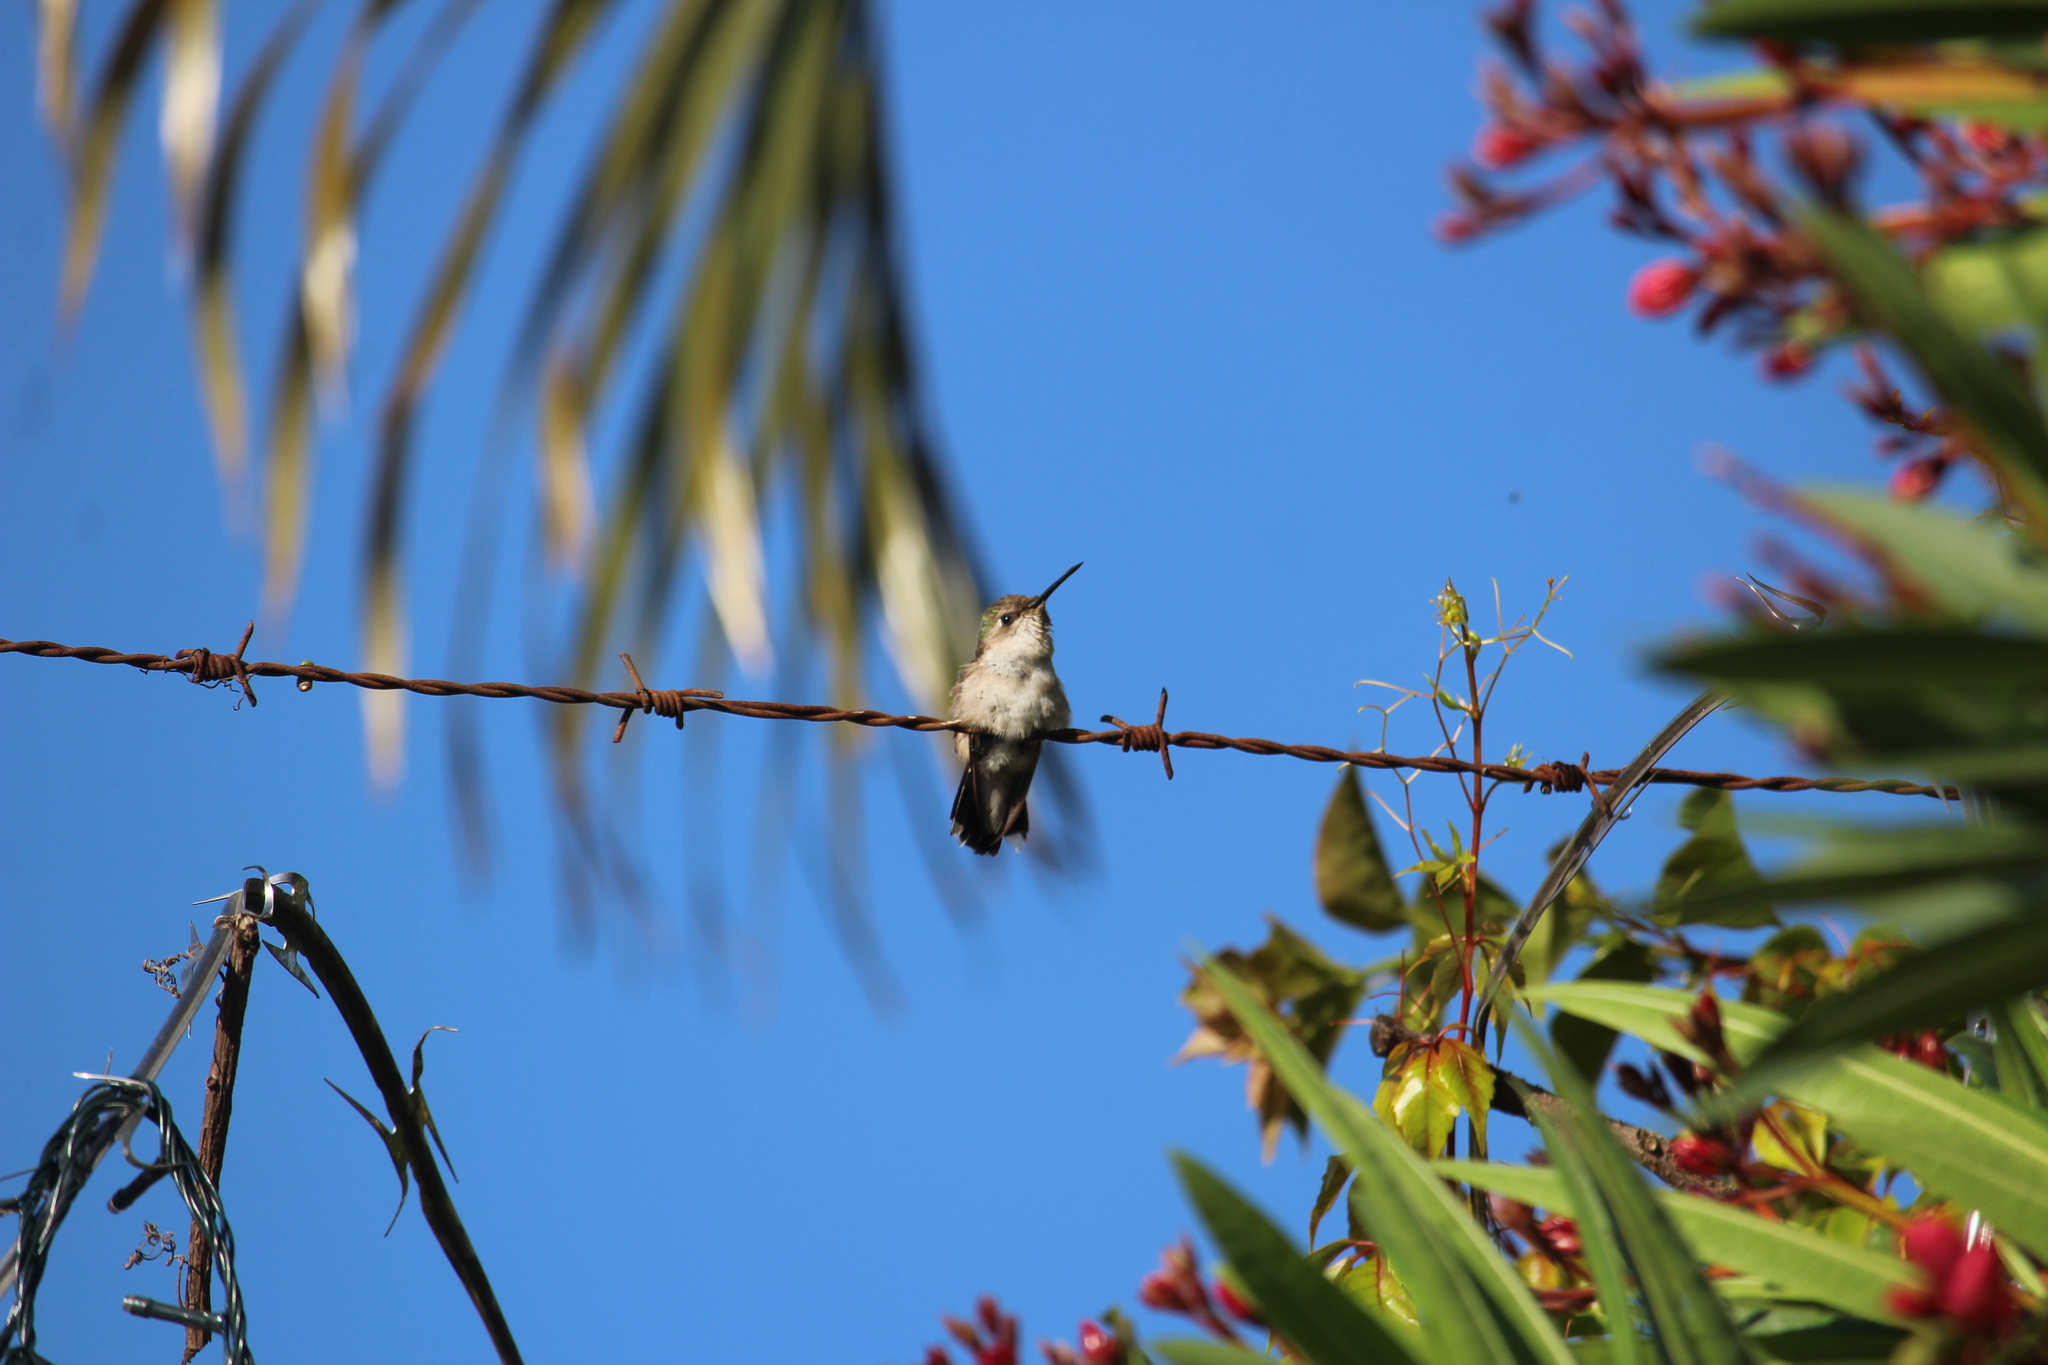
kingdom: Animalia
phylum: Chordata
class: Aves
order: Apodiformes
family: Trochilidae
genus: Archilochus
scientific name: Archilochus colubris
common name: Ruby-throated hummingbird
